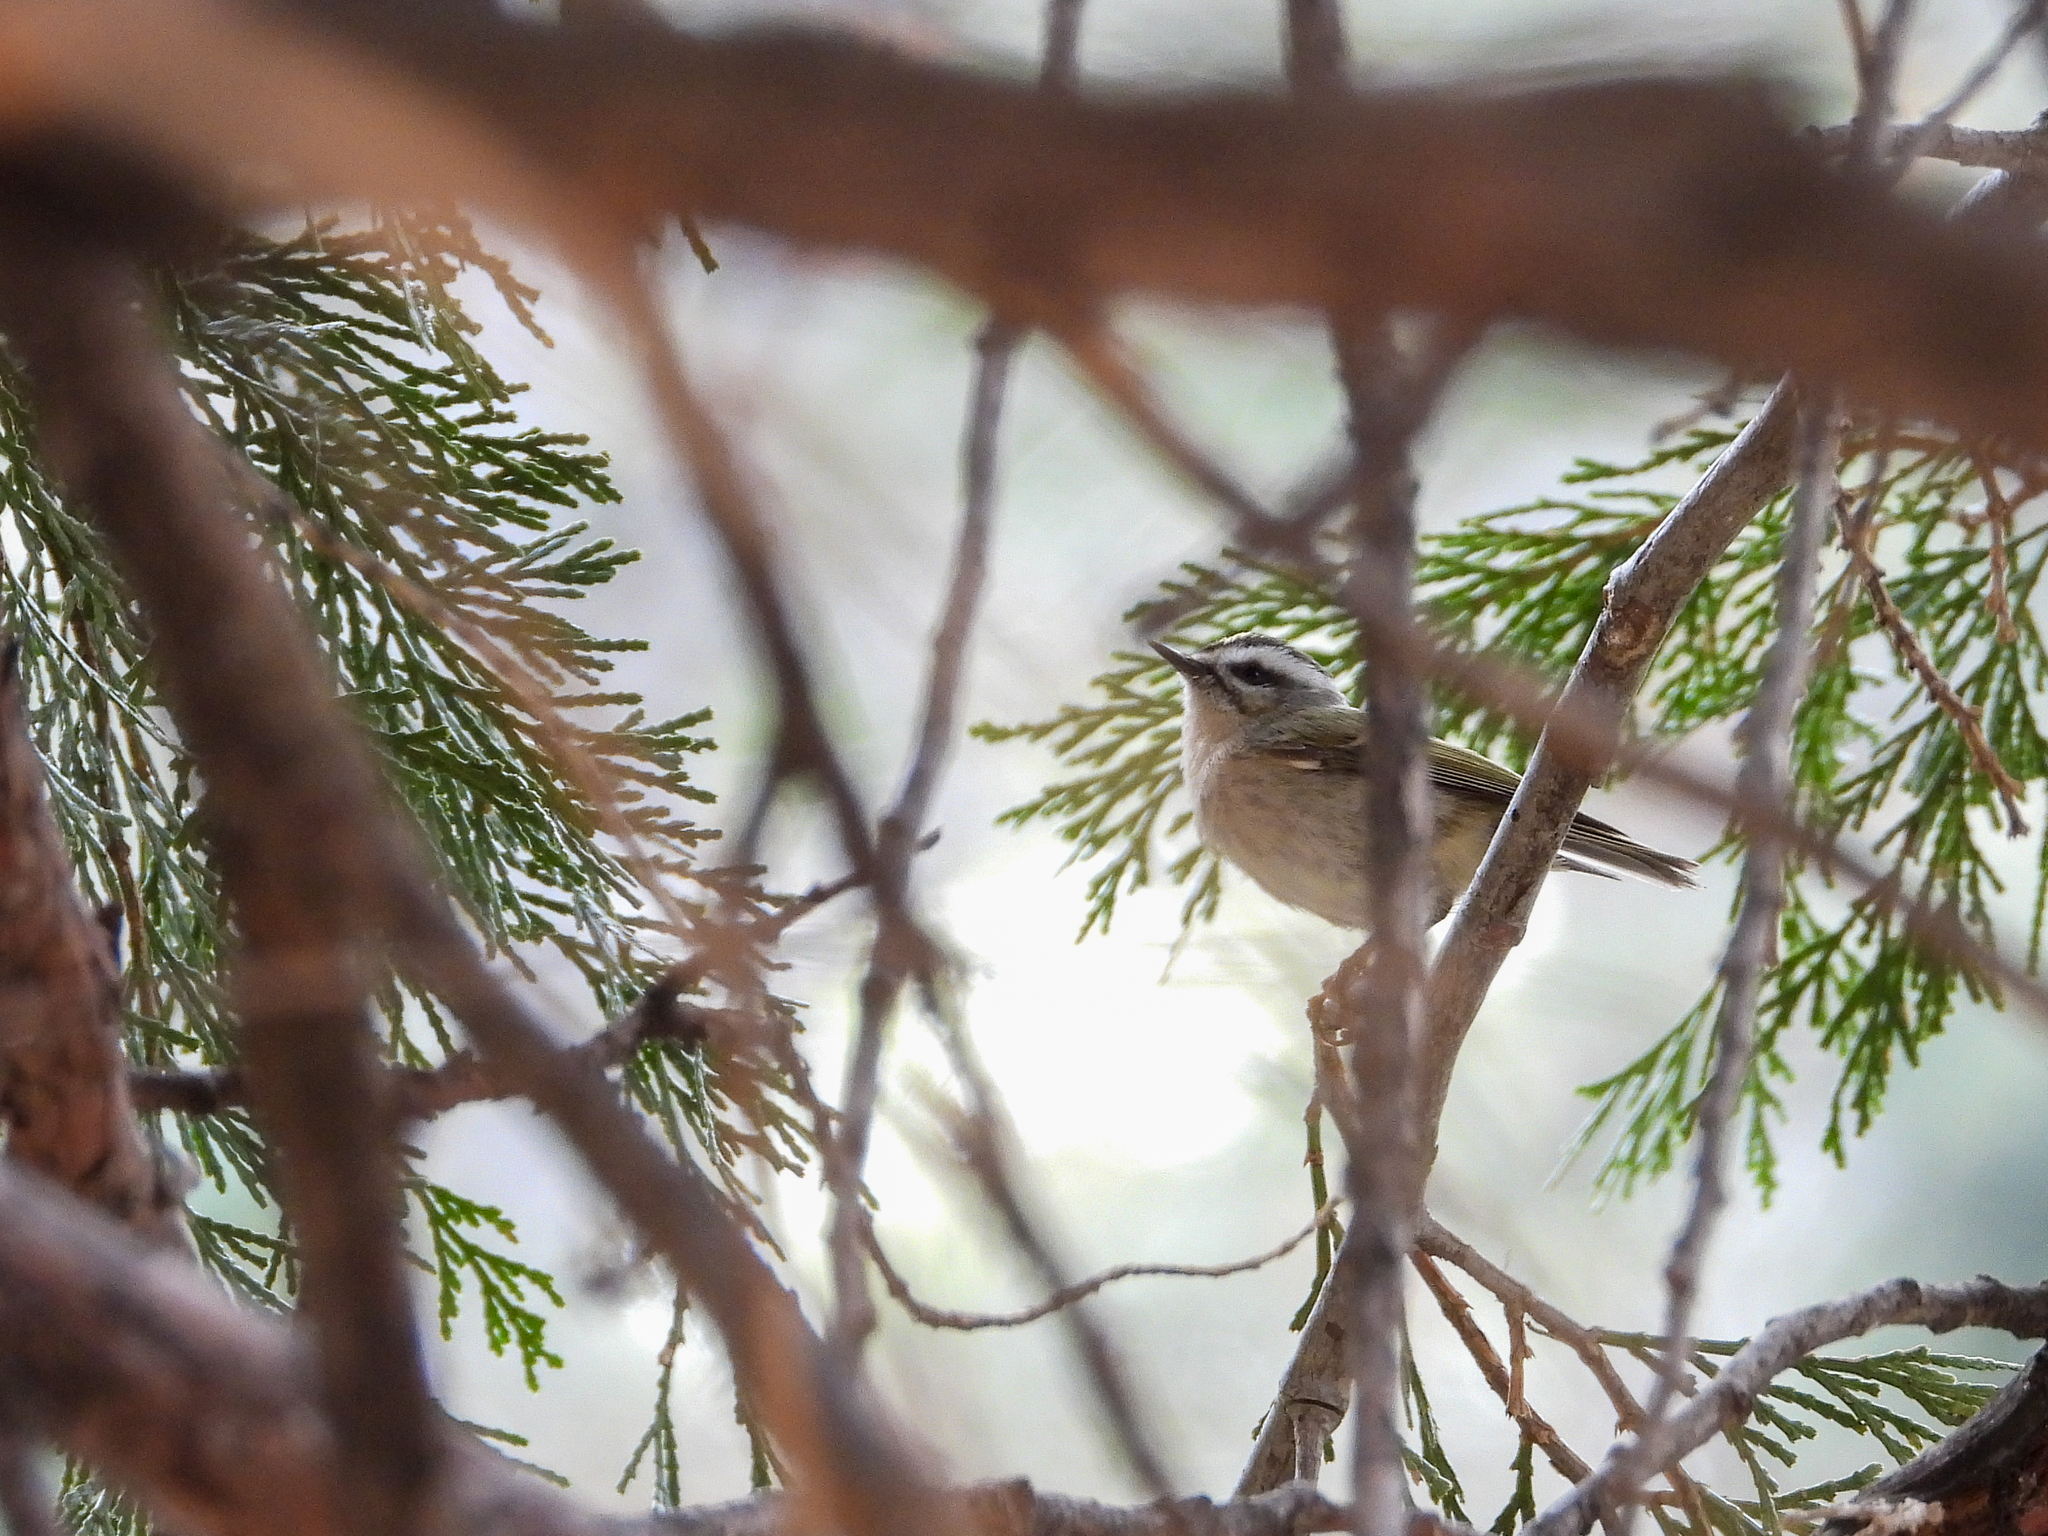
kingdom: Animalia
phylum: Chordata
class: Aves
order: Passeriformes
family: Regulidae
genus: Regulus
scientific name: Regulus satrapa
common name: Golden-crowned kinglet
